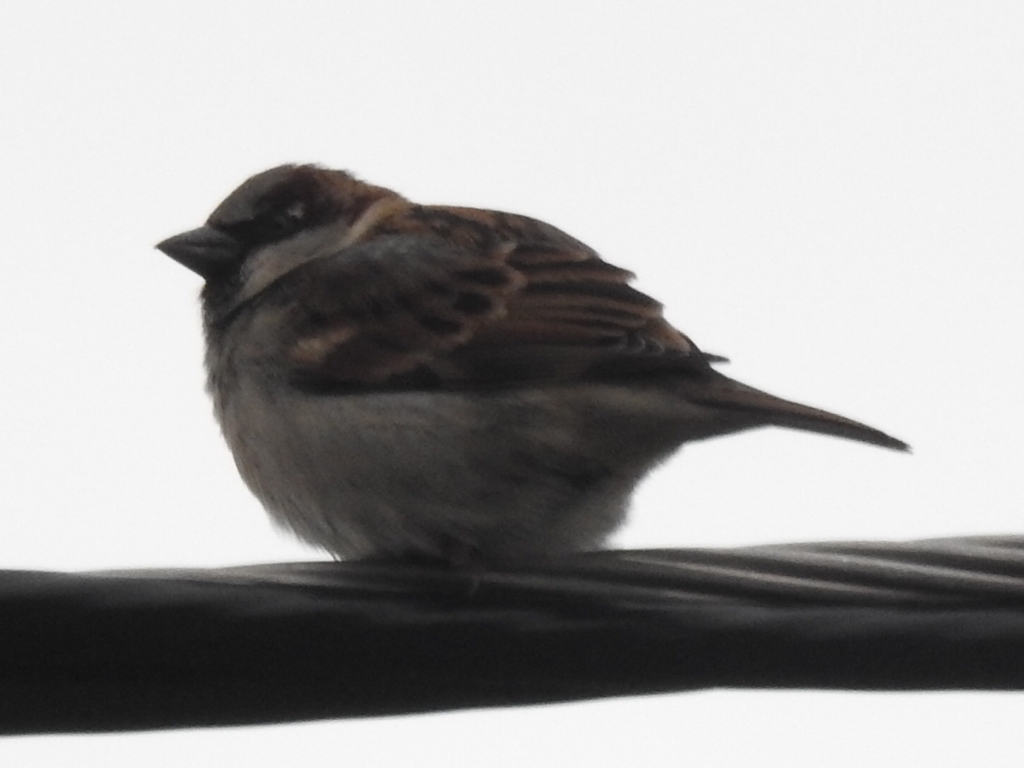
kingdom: Animalia
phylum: Chordata
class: Aves
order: Passeriformes
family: Passeridae
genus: Passer
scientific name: Passer domesticus
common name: House sparrow
